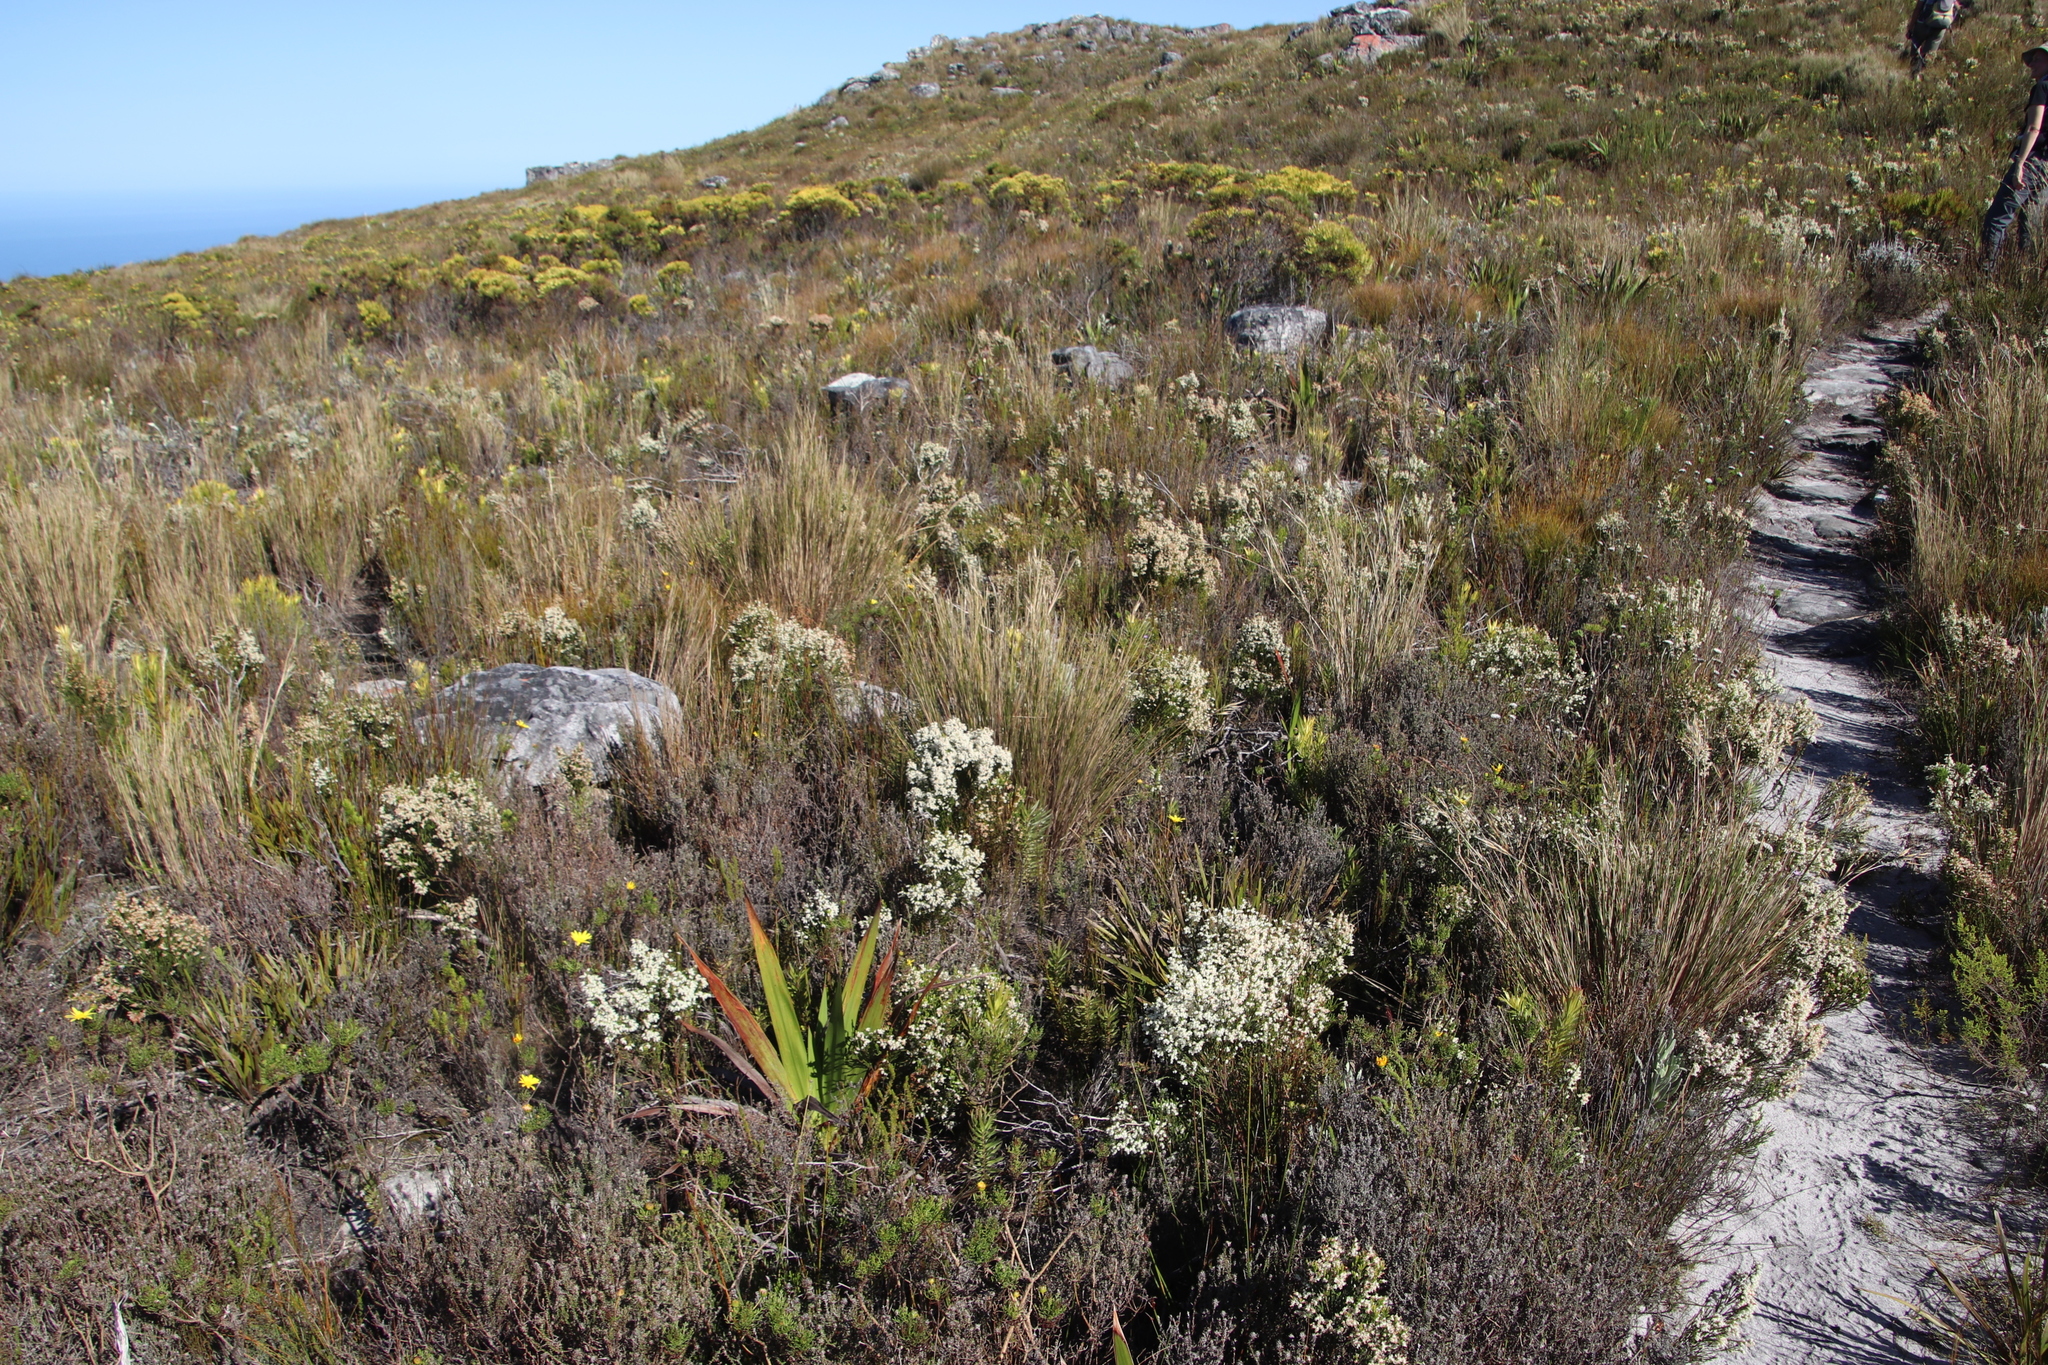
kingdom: Plantae
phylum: Tracheophyta
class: Magnoliopsida
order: Ericales
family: Ericaceae
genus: Erica
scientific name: Erica lutea
